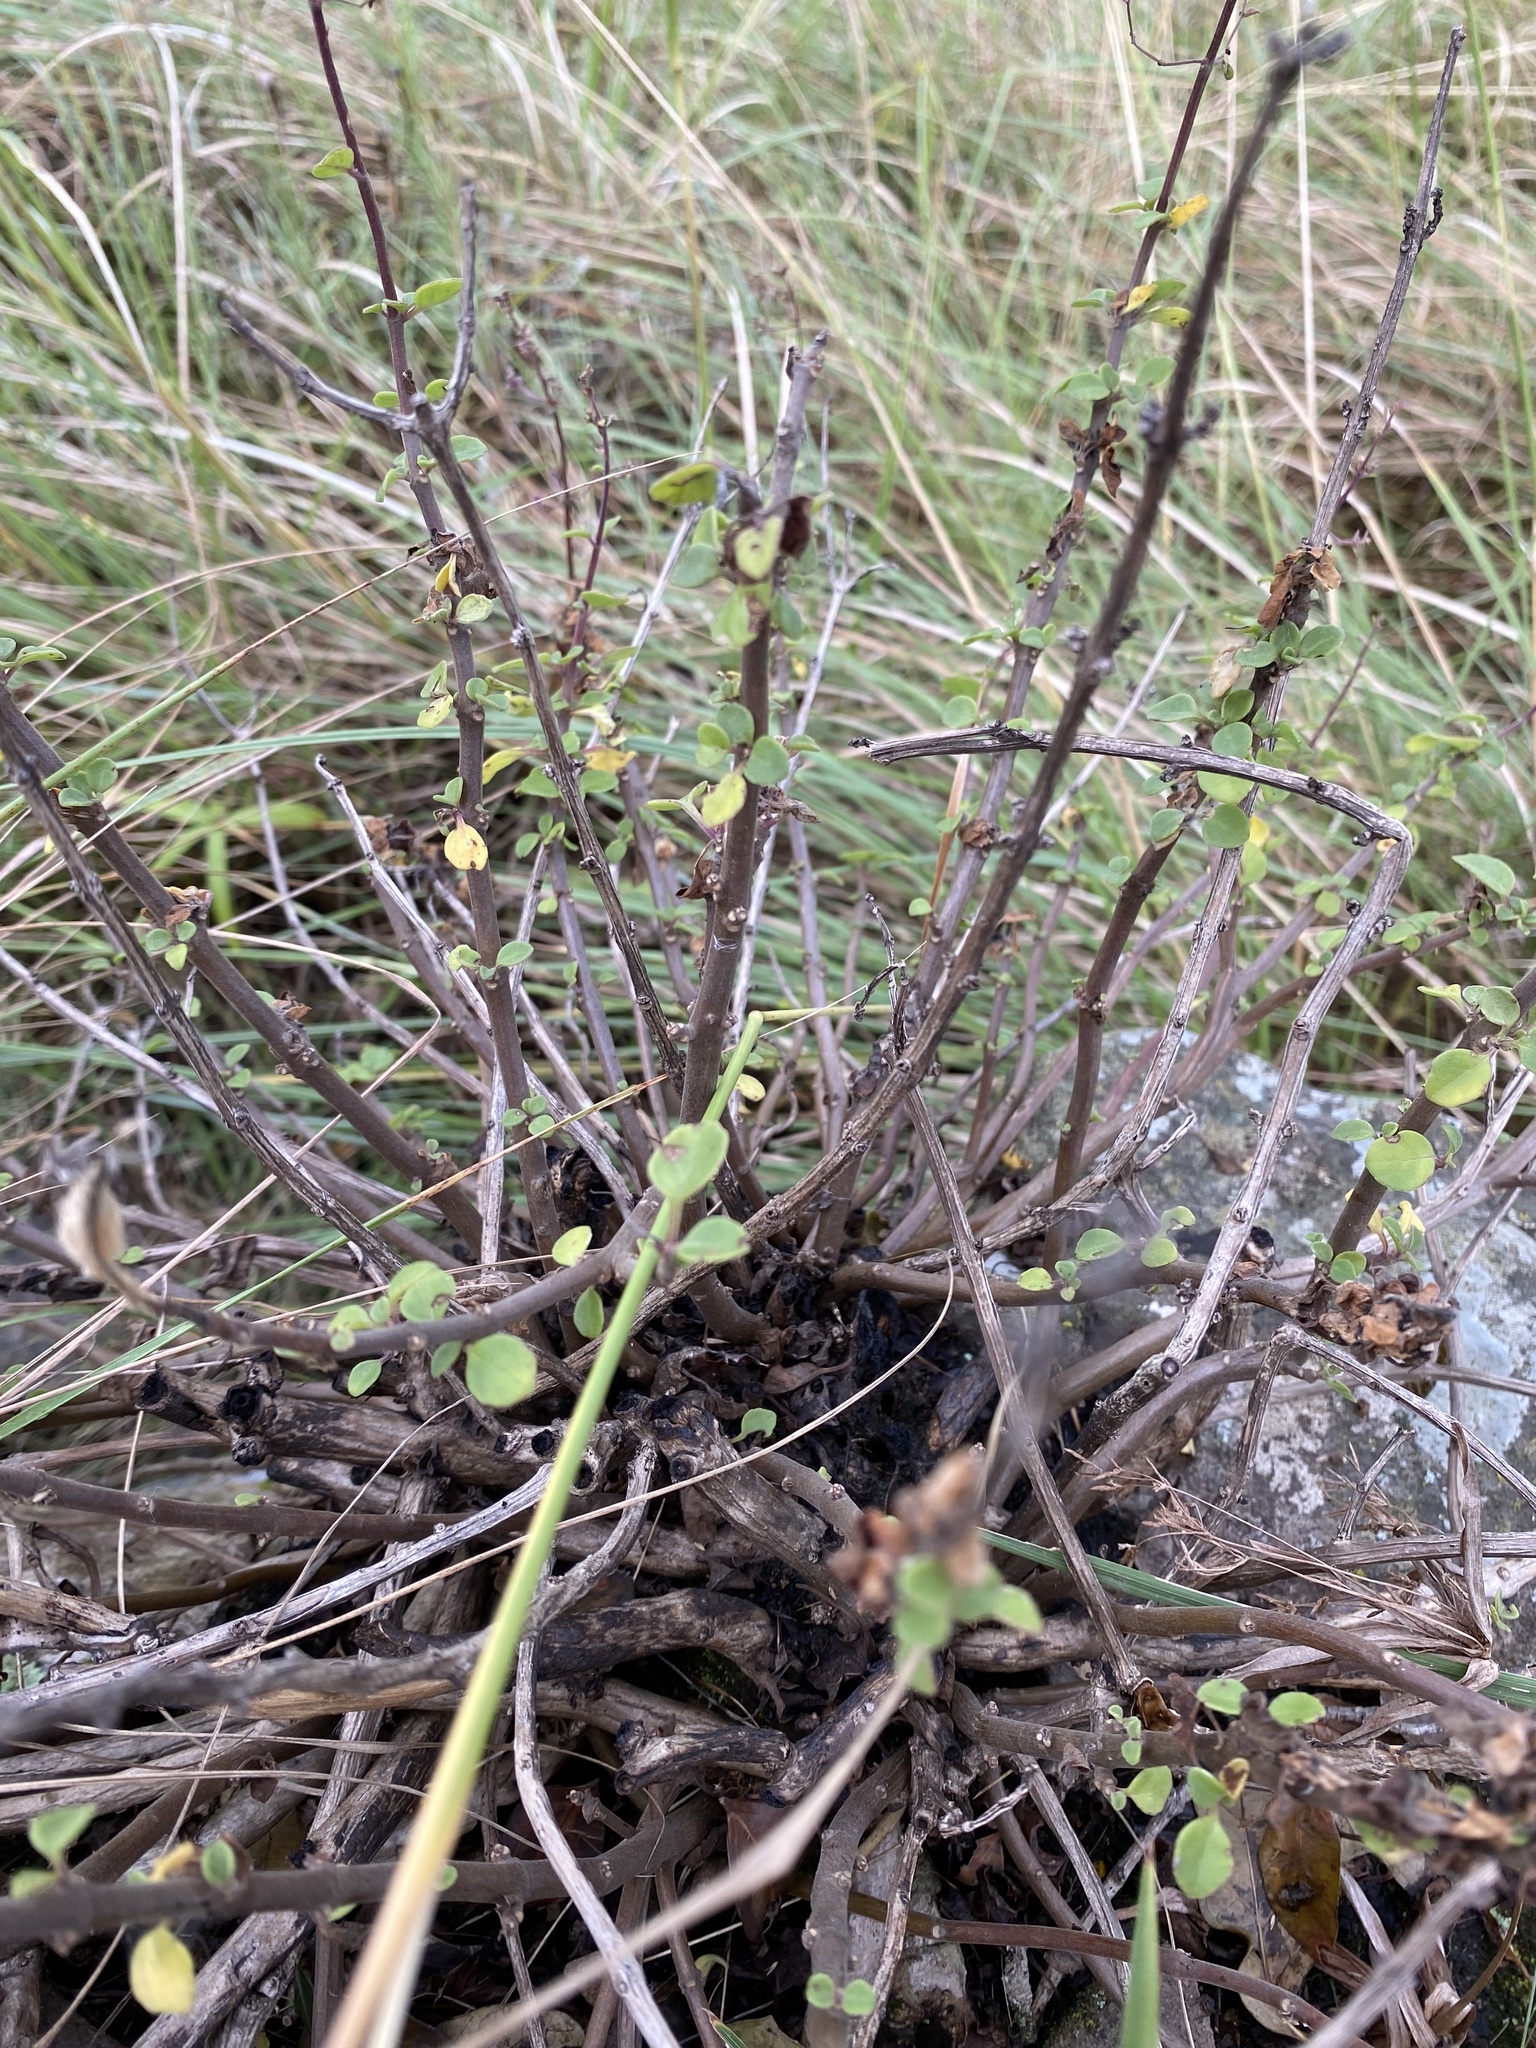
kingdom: Plantae
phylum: Tracheophyta
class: Magnoliopsida
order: Lamiales
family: Lamiaceae
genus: Aeollanthus
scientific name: Aeollanthus parvifolius
